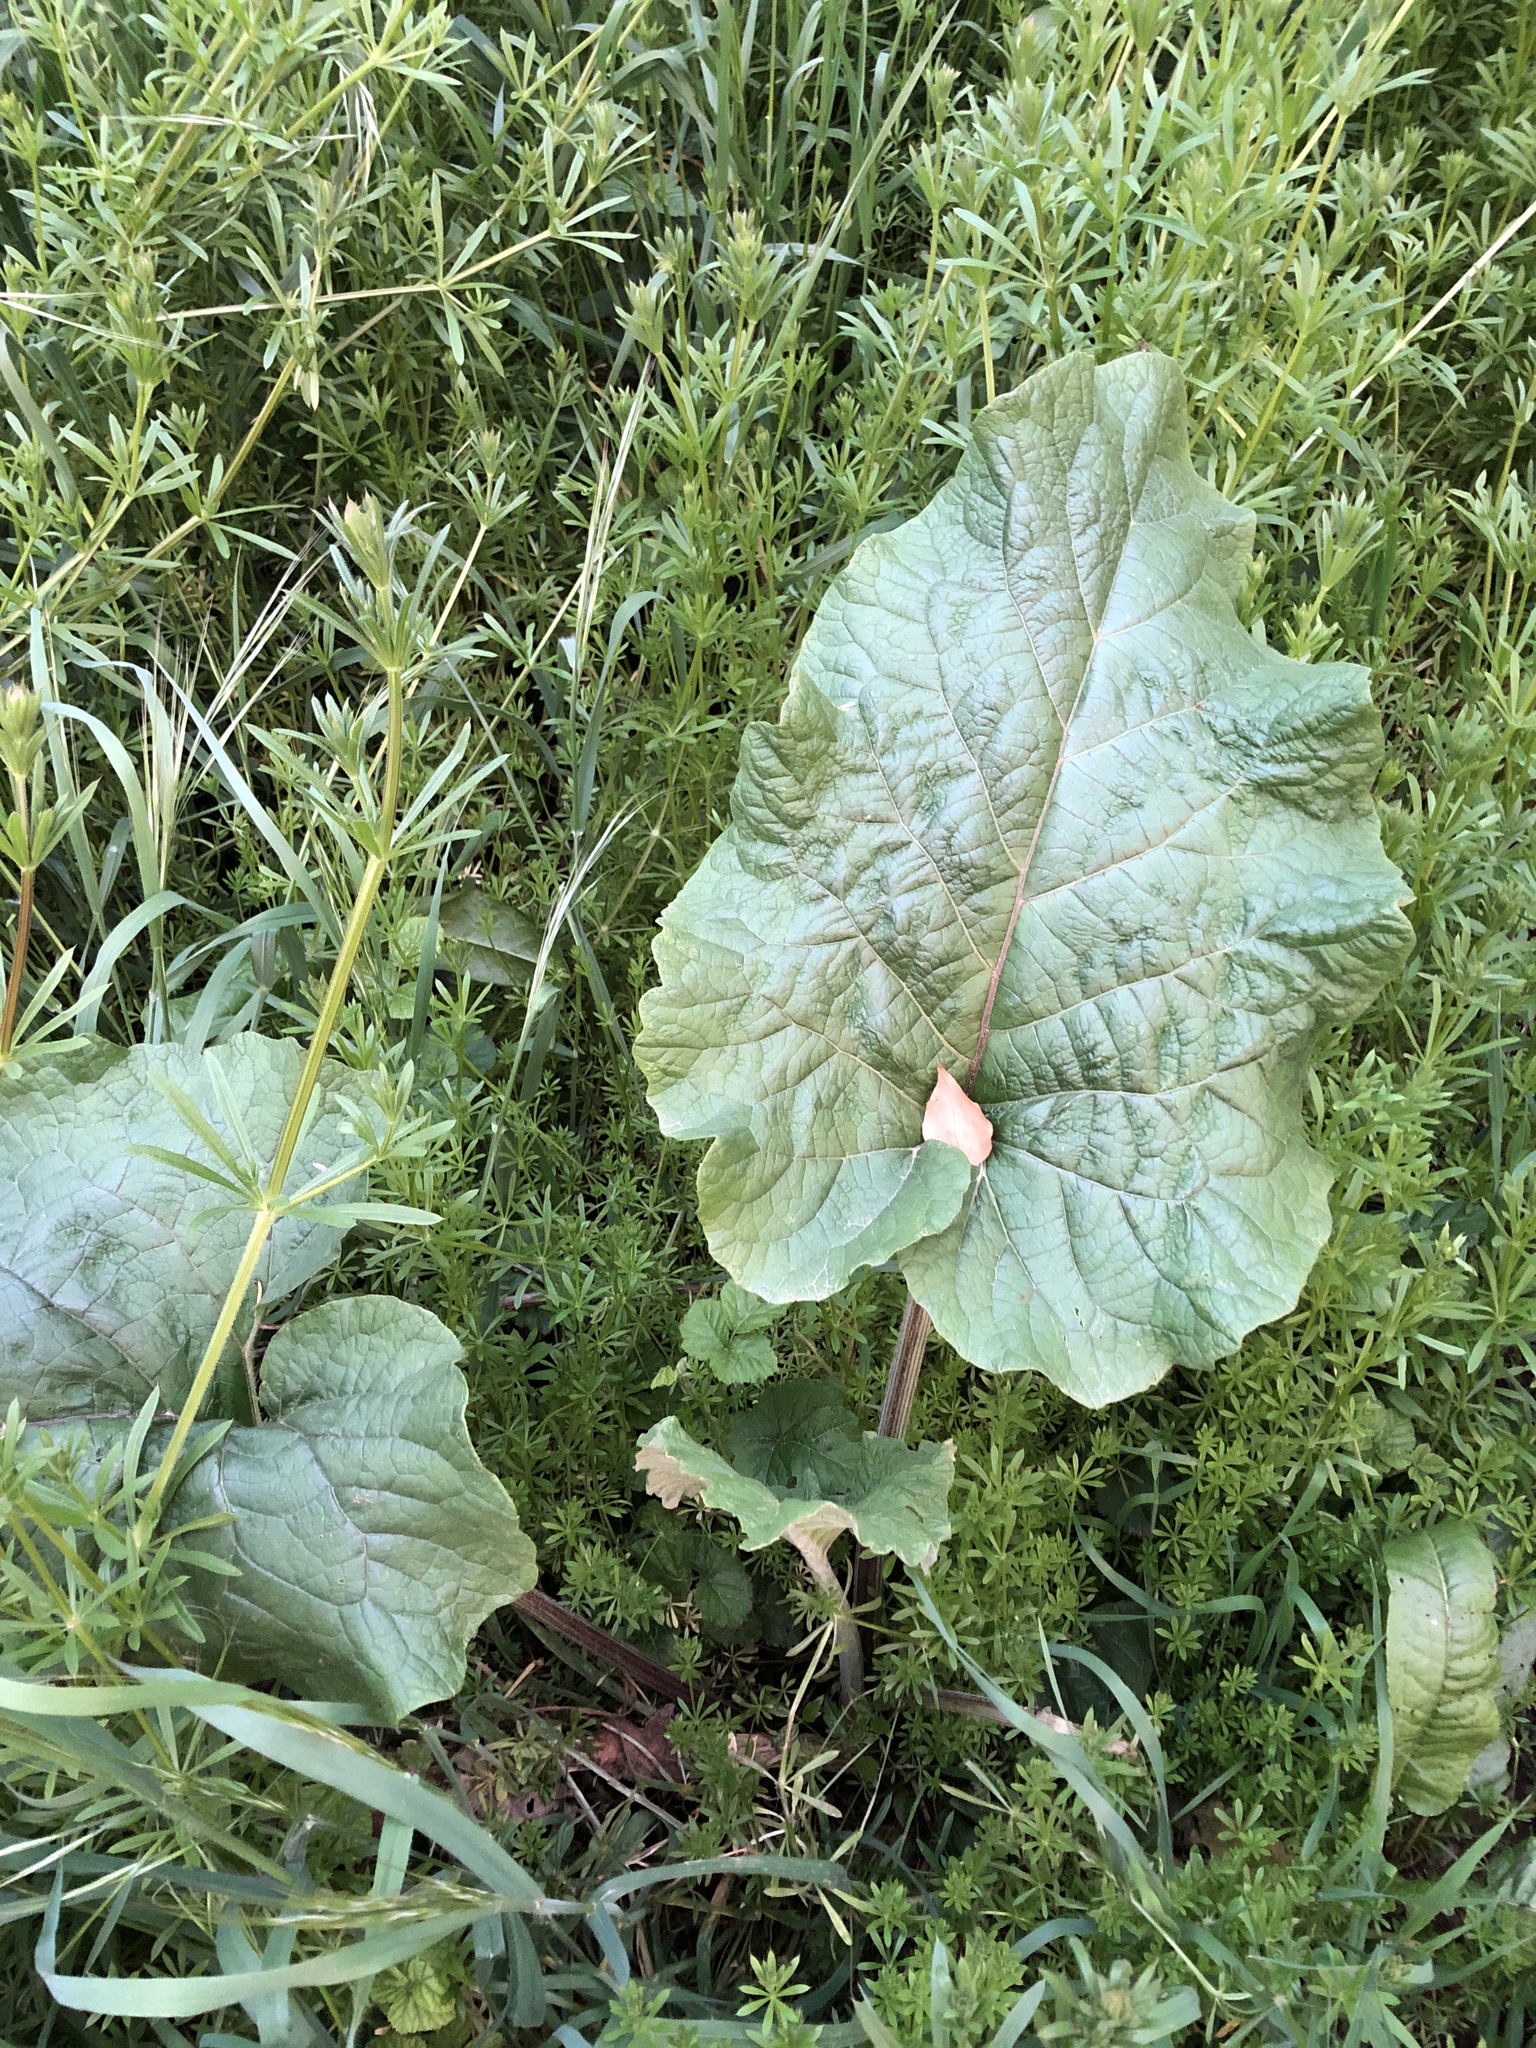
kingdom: Plantae
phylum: Tracheophyta
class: Magnoliopsida
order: Asterales
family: Asteraceae
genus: Arctium
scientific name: Arctium minus
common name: Lesser burdock
